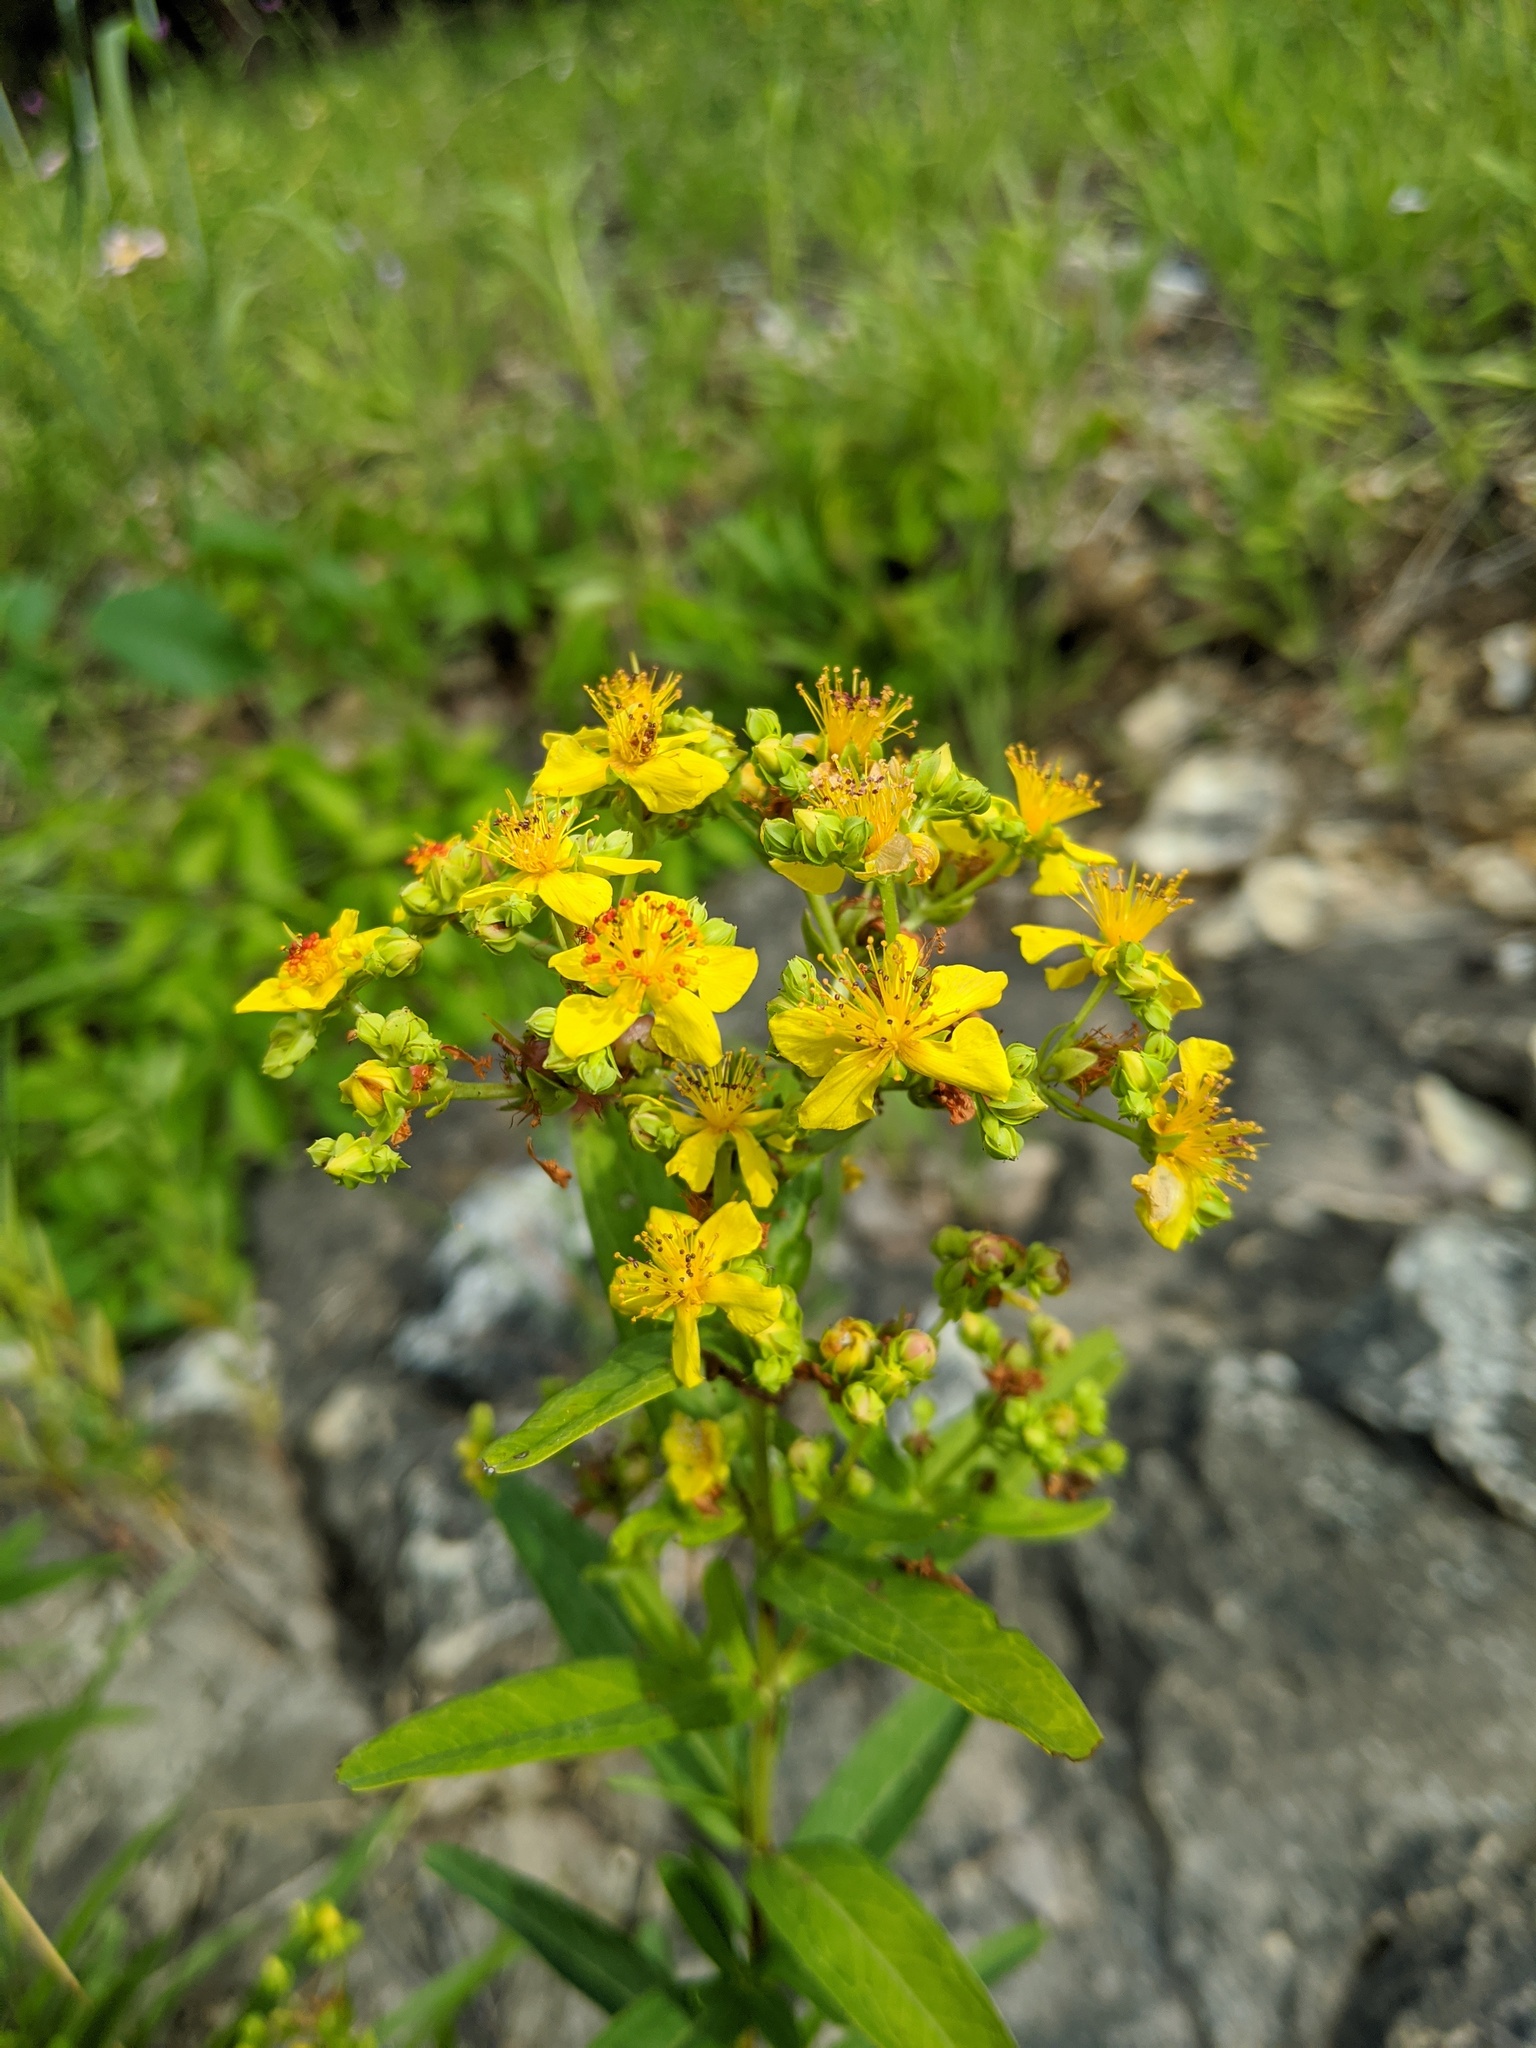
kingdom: Plantae
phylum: Tracheophyta
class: Magnoliopsida
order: Malpighiales
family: Hypericaceae
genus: Hypericum
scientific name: Hypericum sphaerocarpum
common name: Round-fruited st. john's-wort
